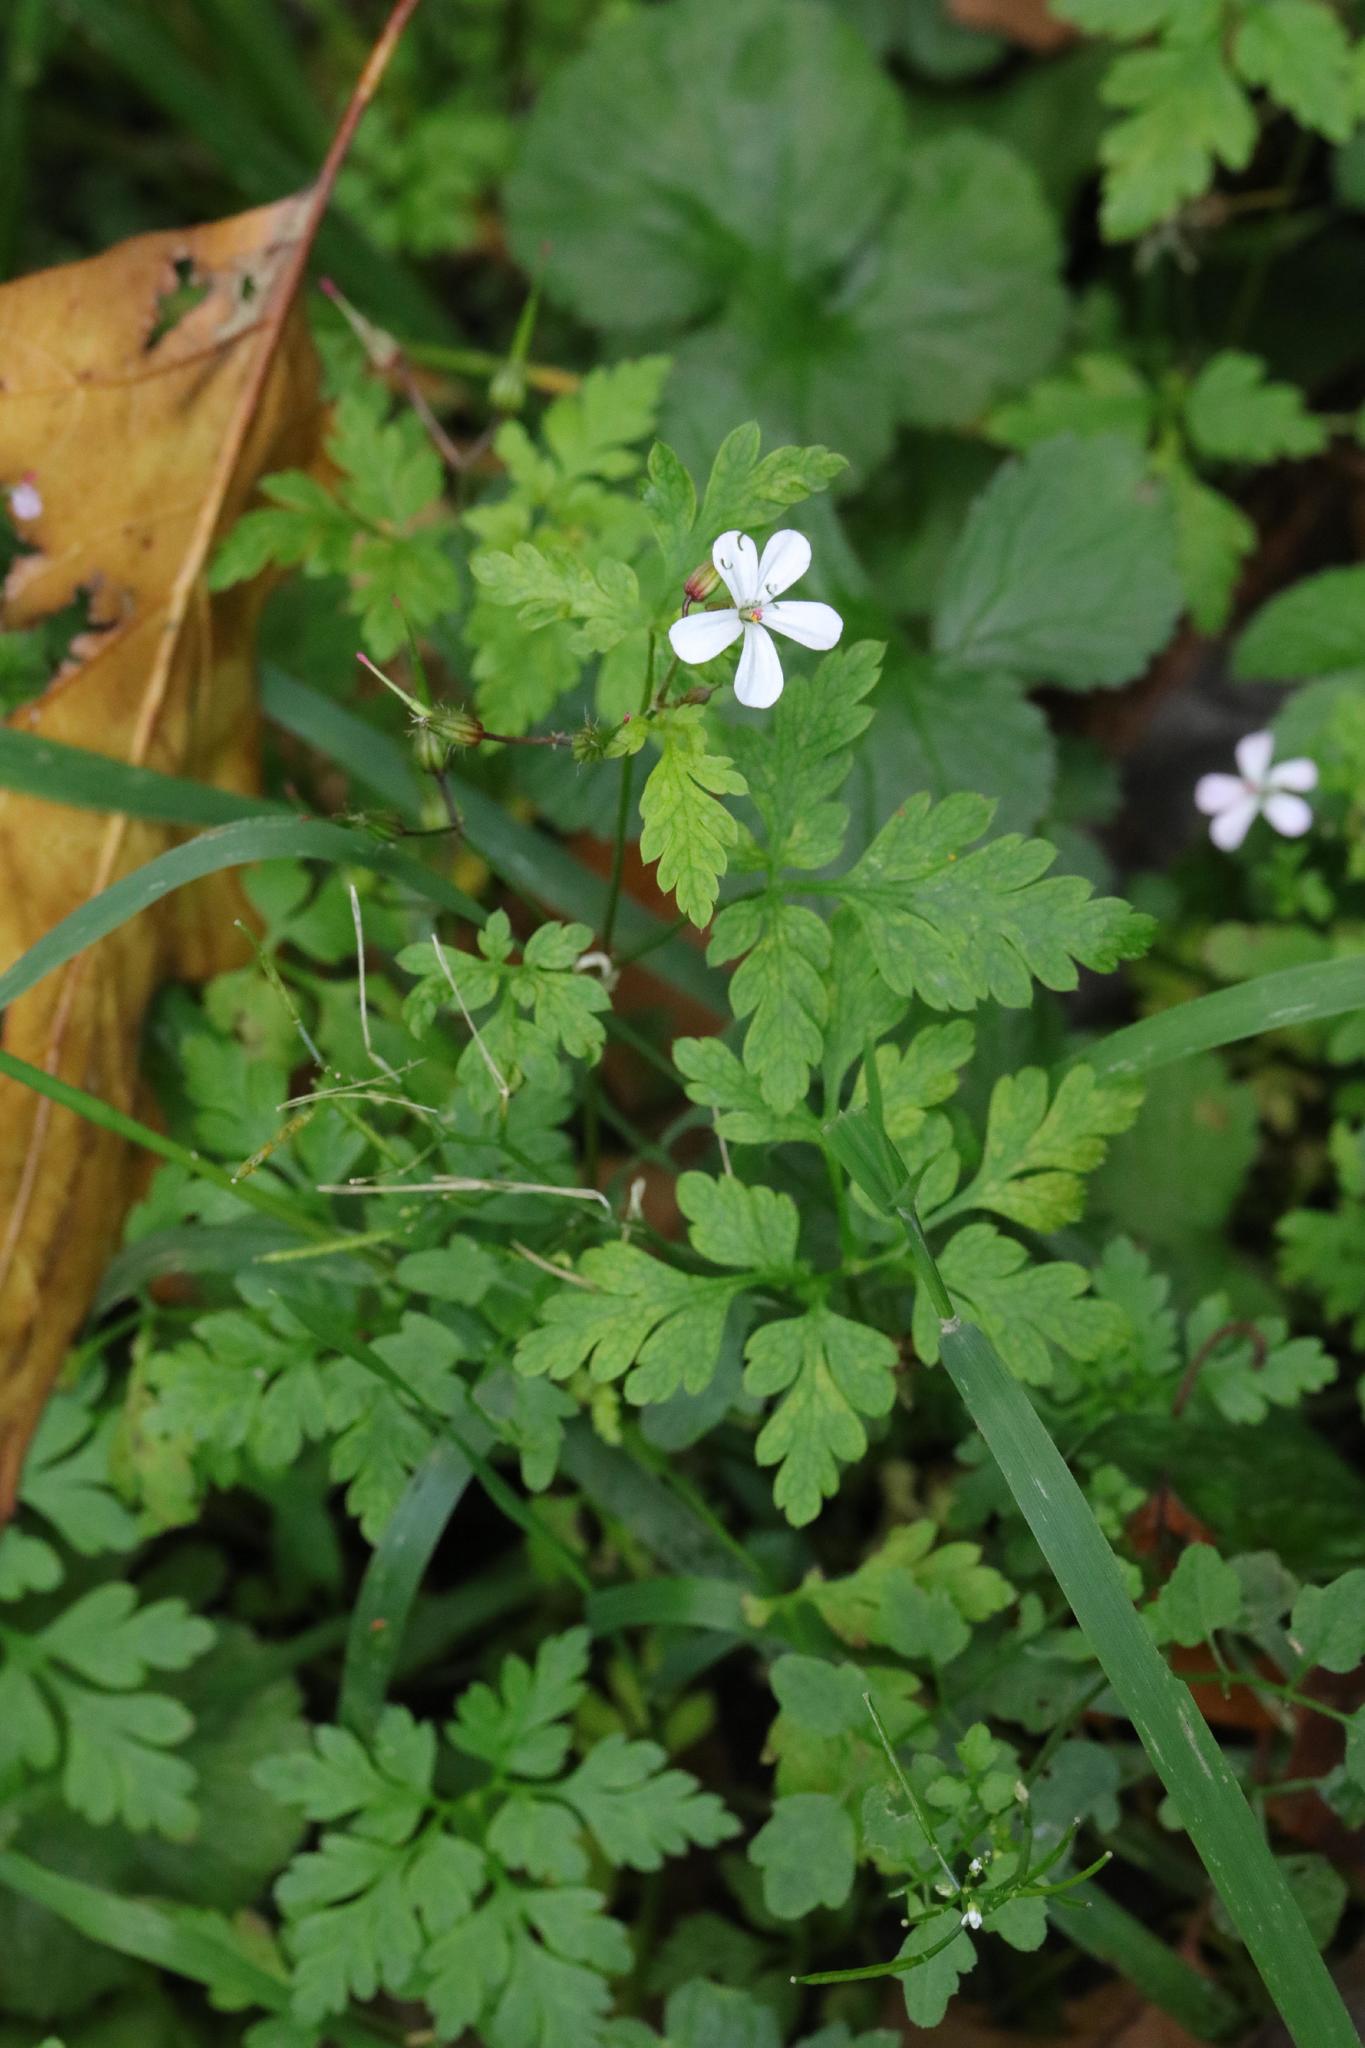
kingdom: Plantae
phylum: Tracheophyta
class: Magnoliopsida
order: Geraniales
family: Geraniaceae
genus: Geranium
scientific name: Geranium robertianum
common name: Herb-robert
